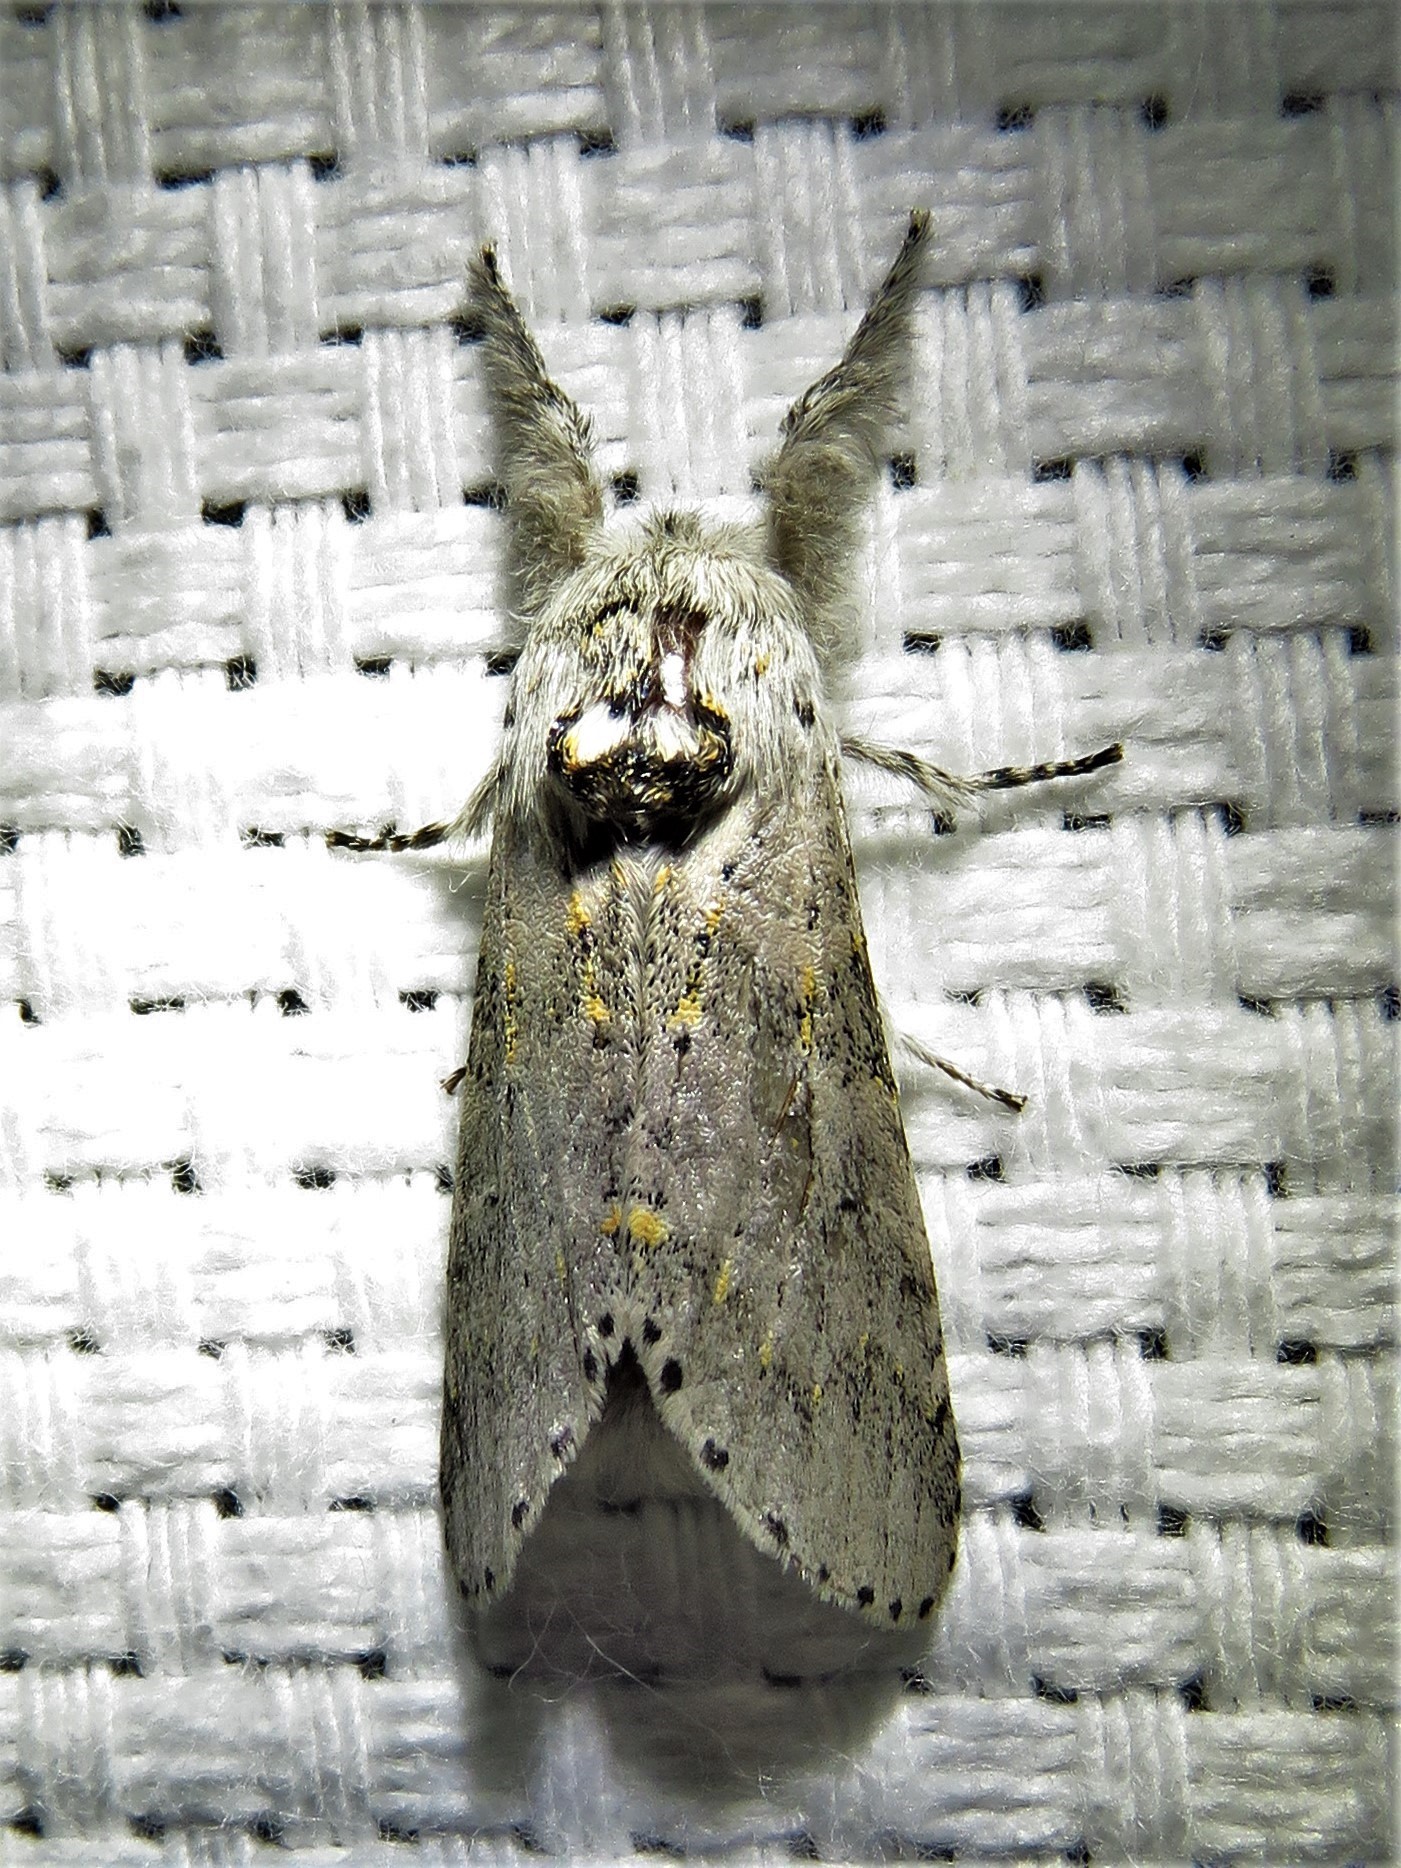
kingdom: Animalia
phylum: Arthropoda
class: Insecta
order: Lepidoptera
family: Notodontidae
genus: Furcula
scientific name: Furcula cinerea
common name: Gray furcula
